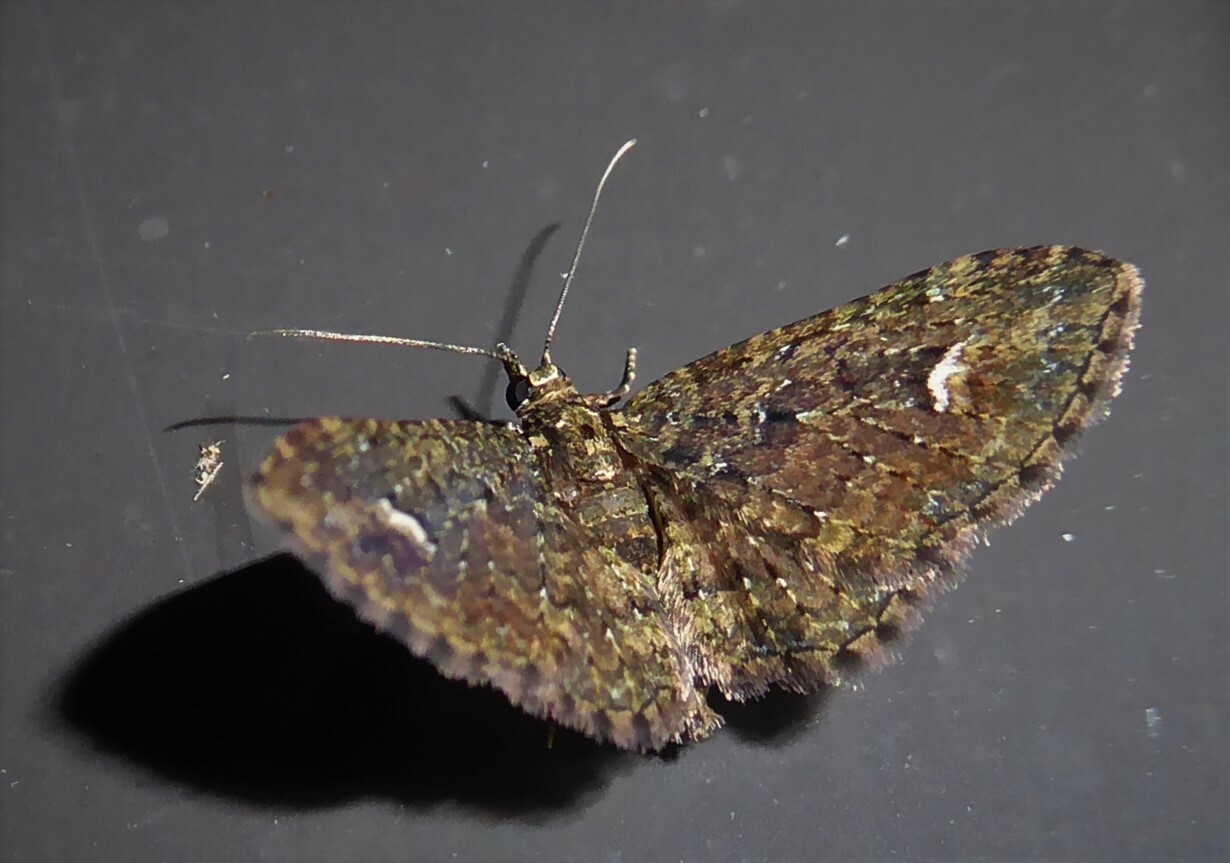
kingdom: Animalia
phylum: Arthropoda
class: Insecta
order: Lepidoptera
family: Geometridae
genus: Pasiphilodes
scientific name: Pasiphilodes testulata
